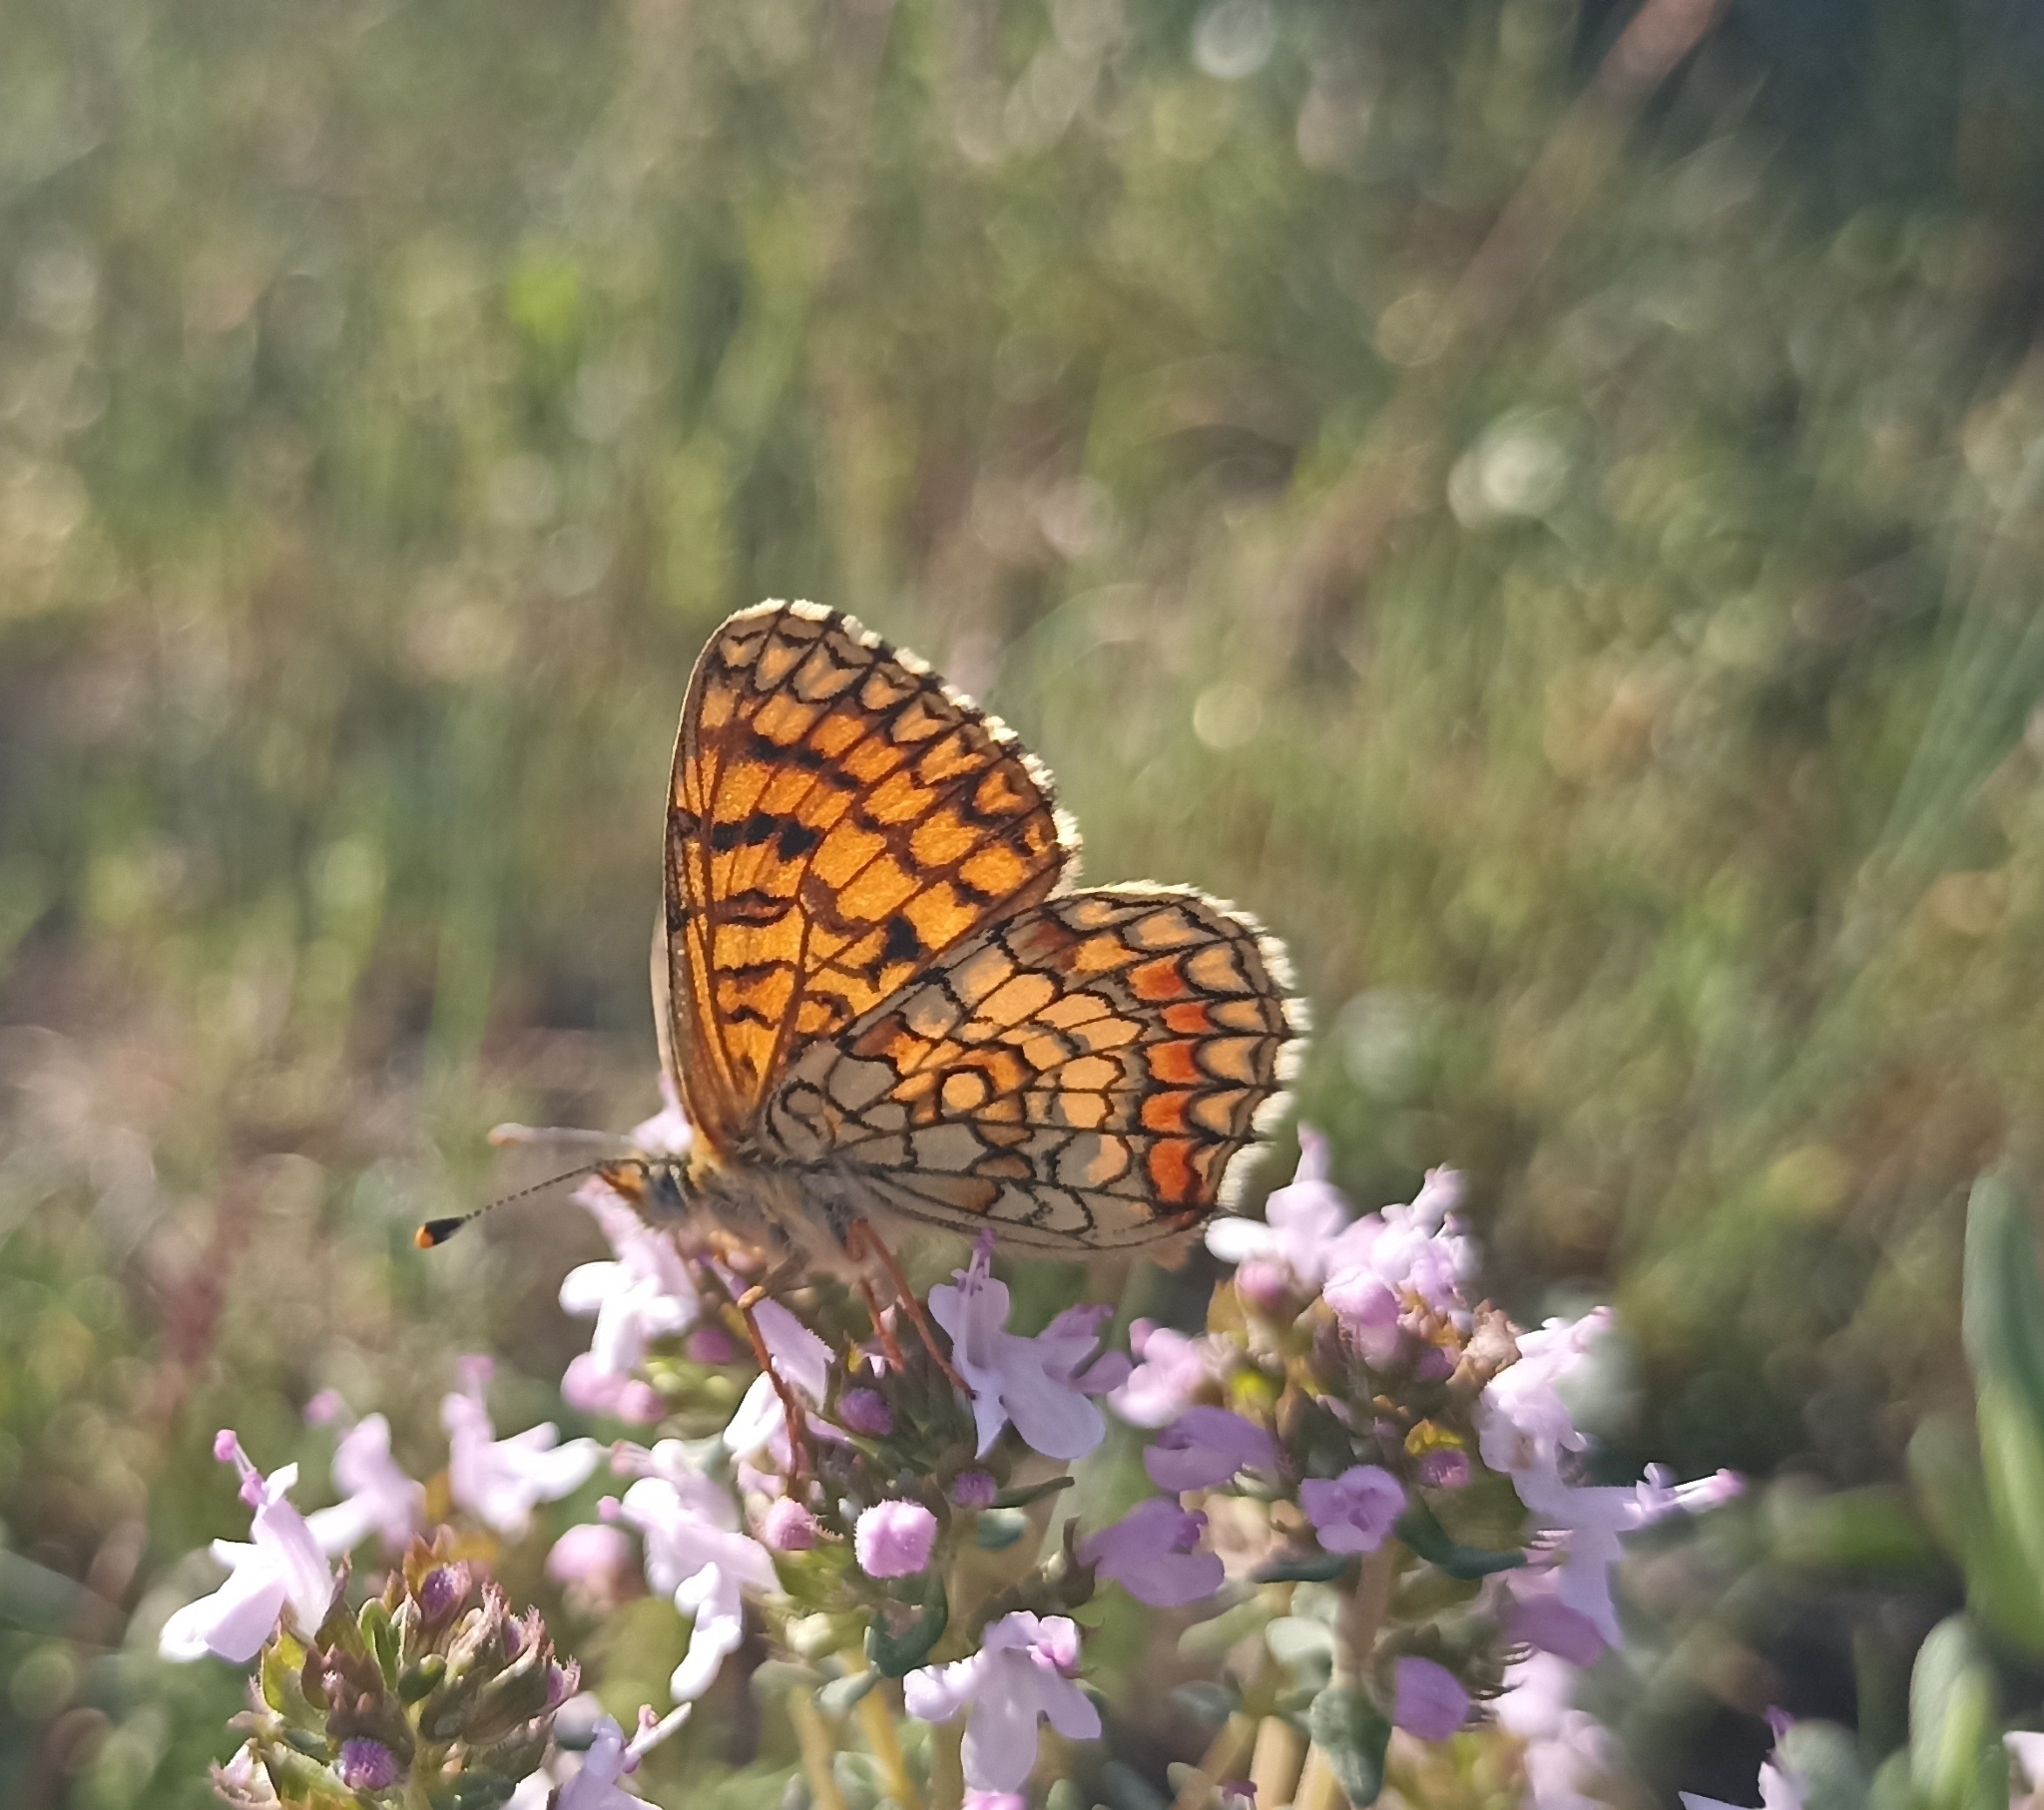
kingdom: Animalia
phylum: Arthropoda
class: Insecta
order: Lepidoptera
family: Nymphalidae
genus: Mellicta
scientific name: Mellicta athalia
